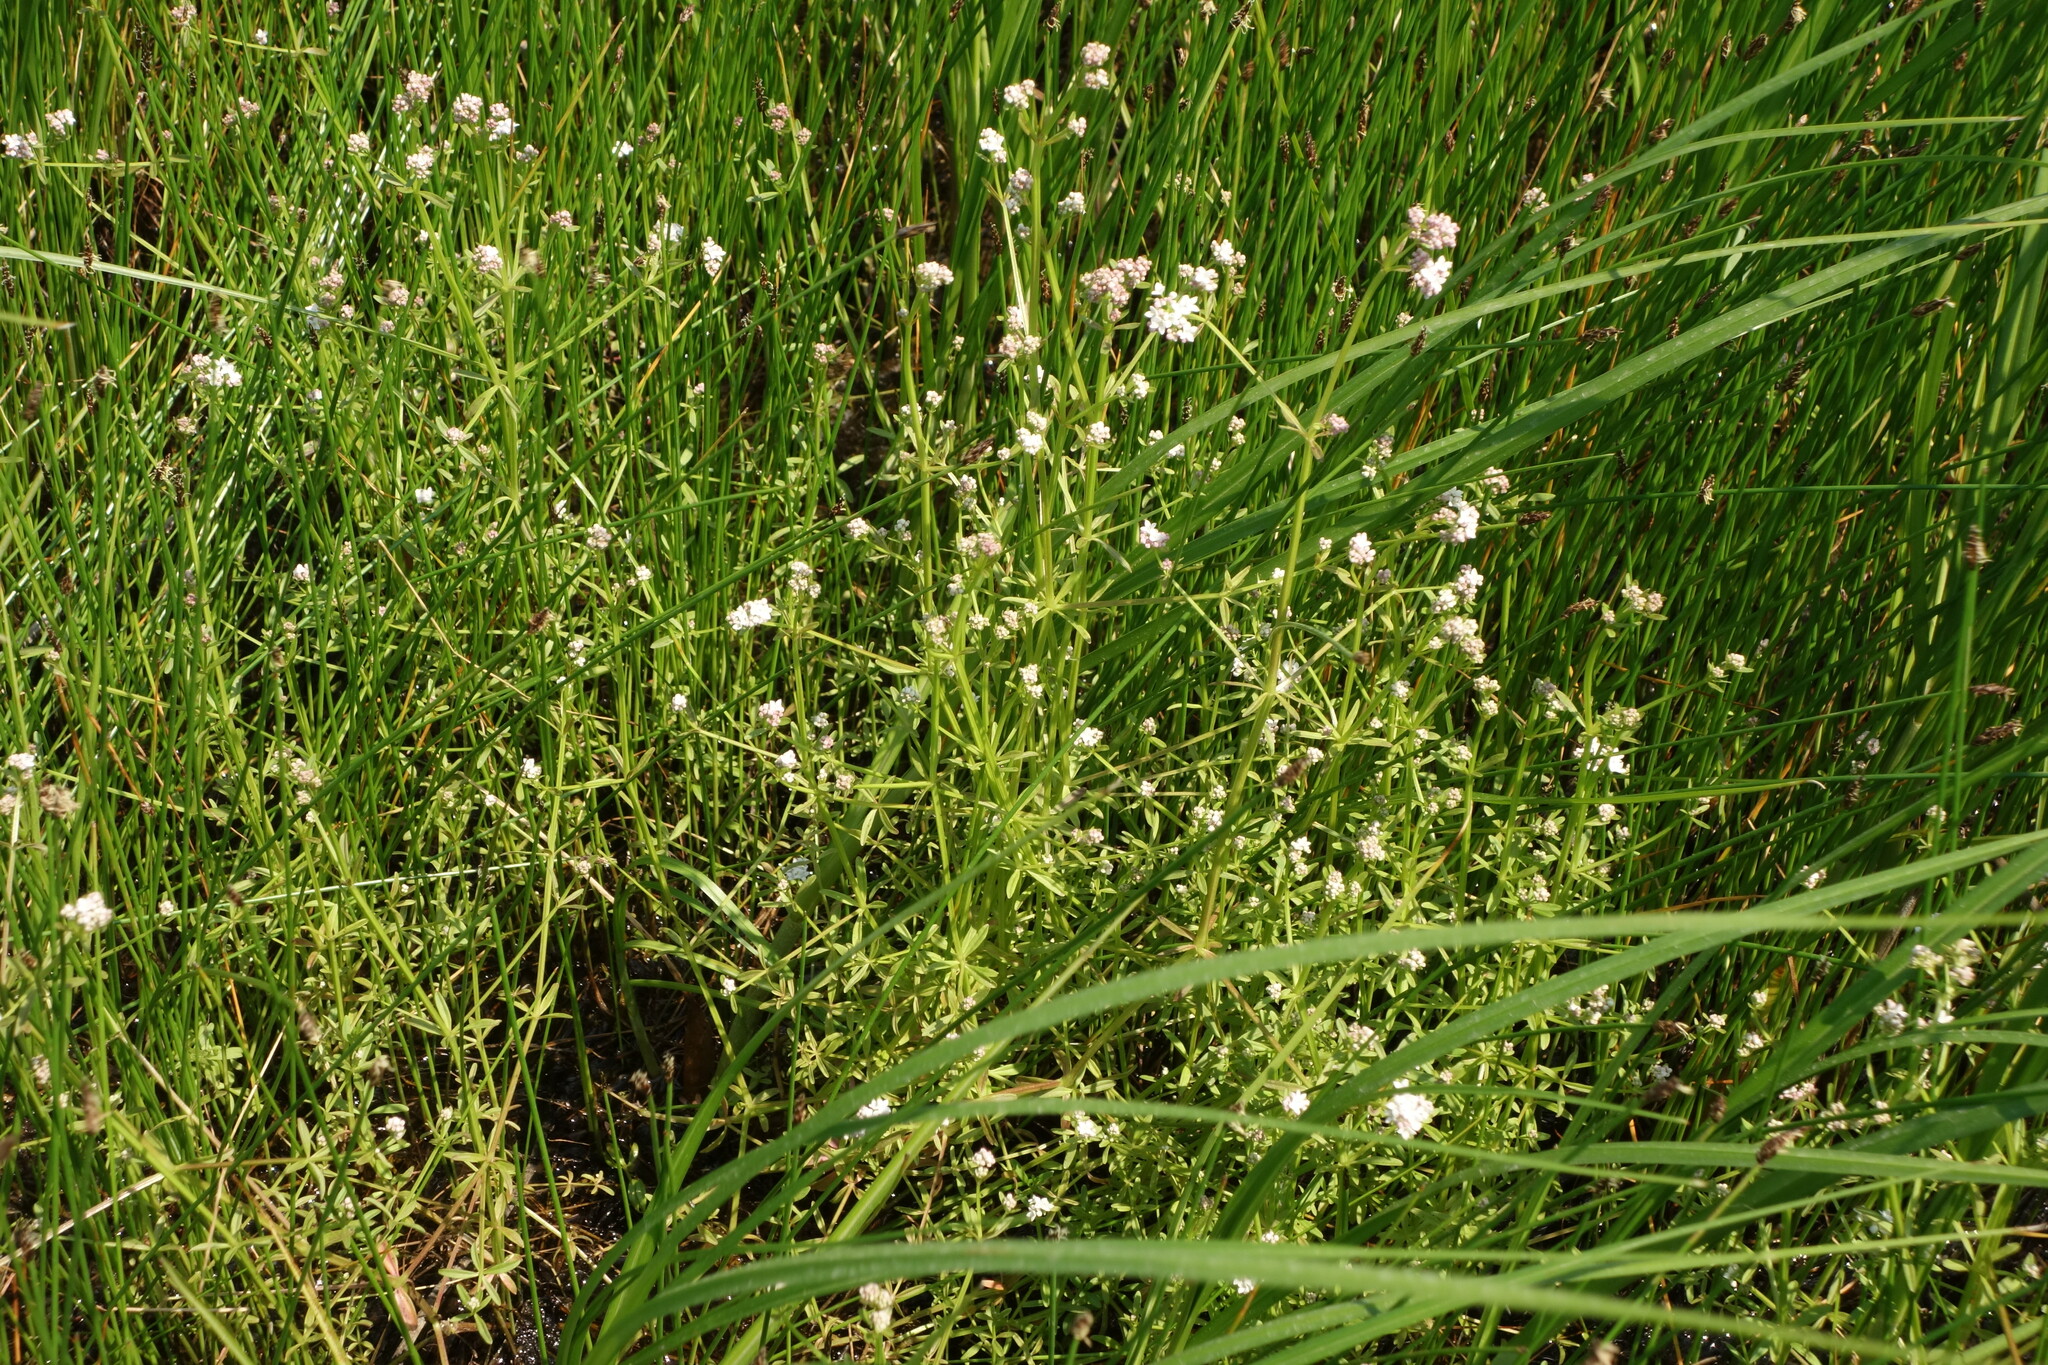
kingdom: Plantae
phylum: Tracheophyta
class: Magnoliopsida
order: Gentianales
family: Rubiaceae
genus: Galium
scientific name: Galium palustre
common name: Common marsh-bedstraw
